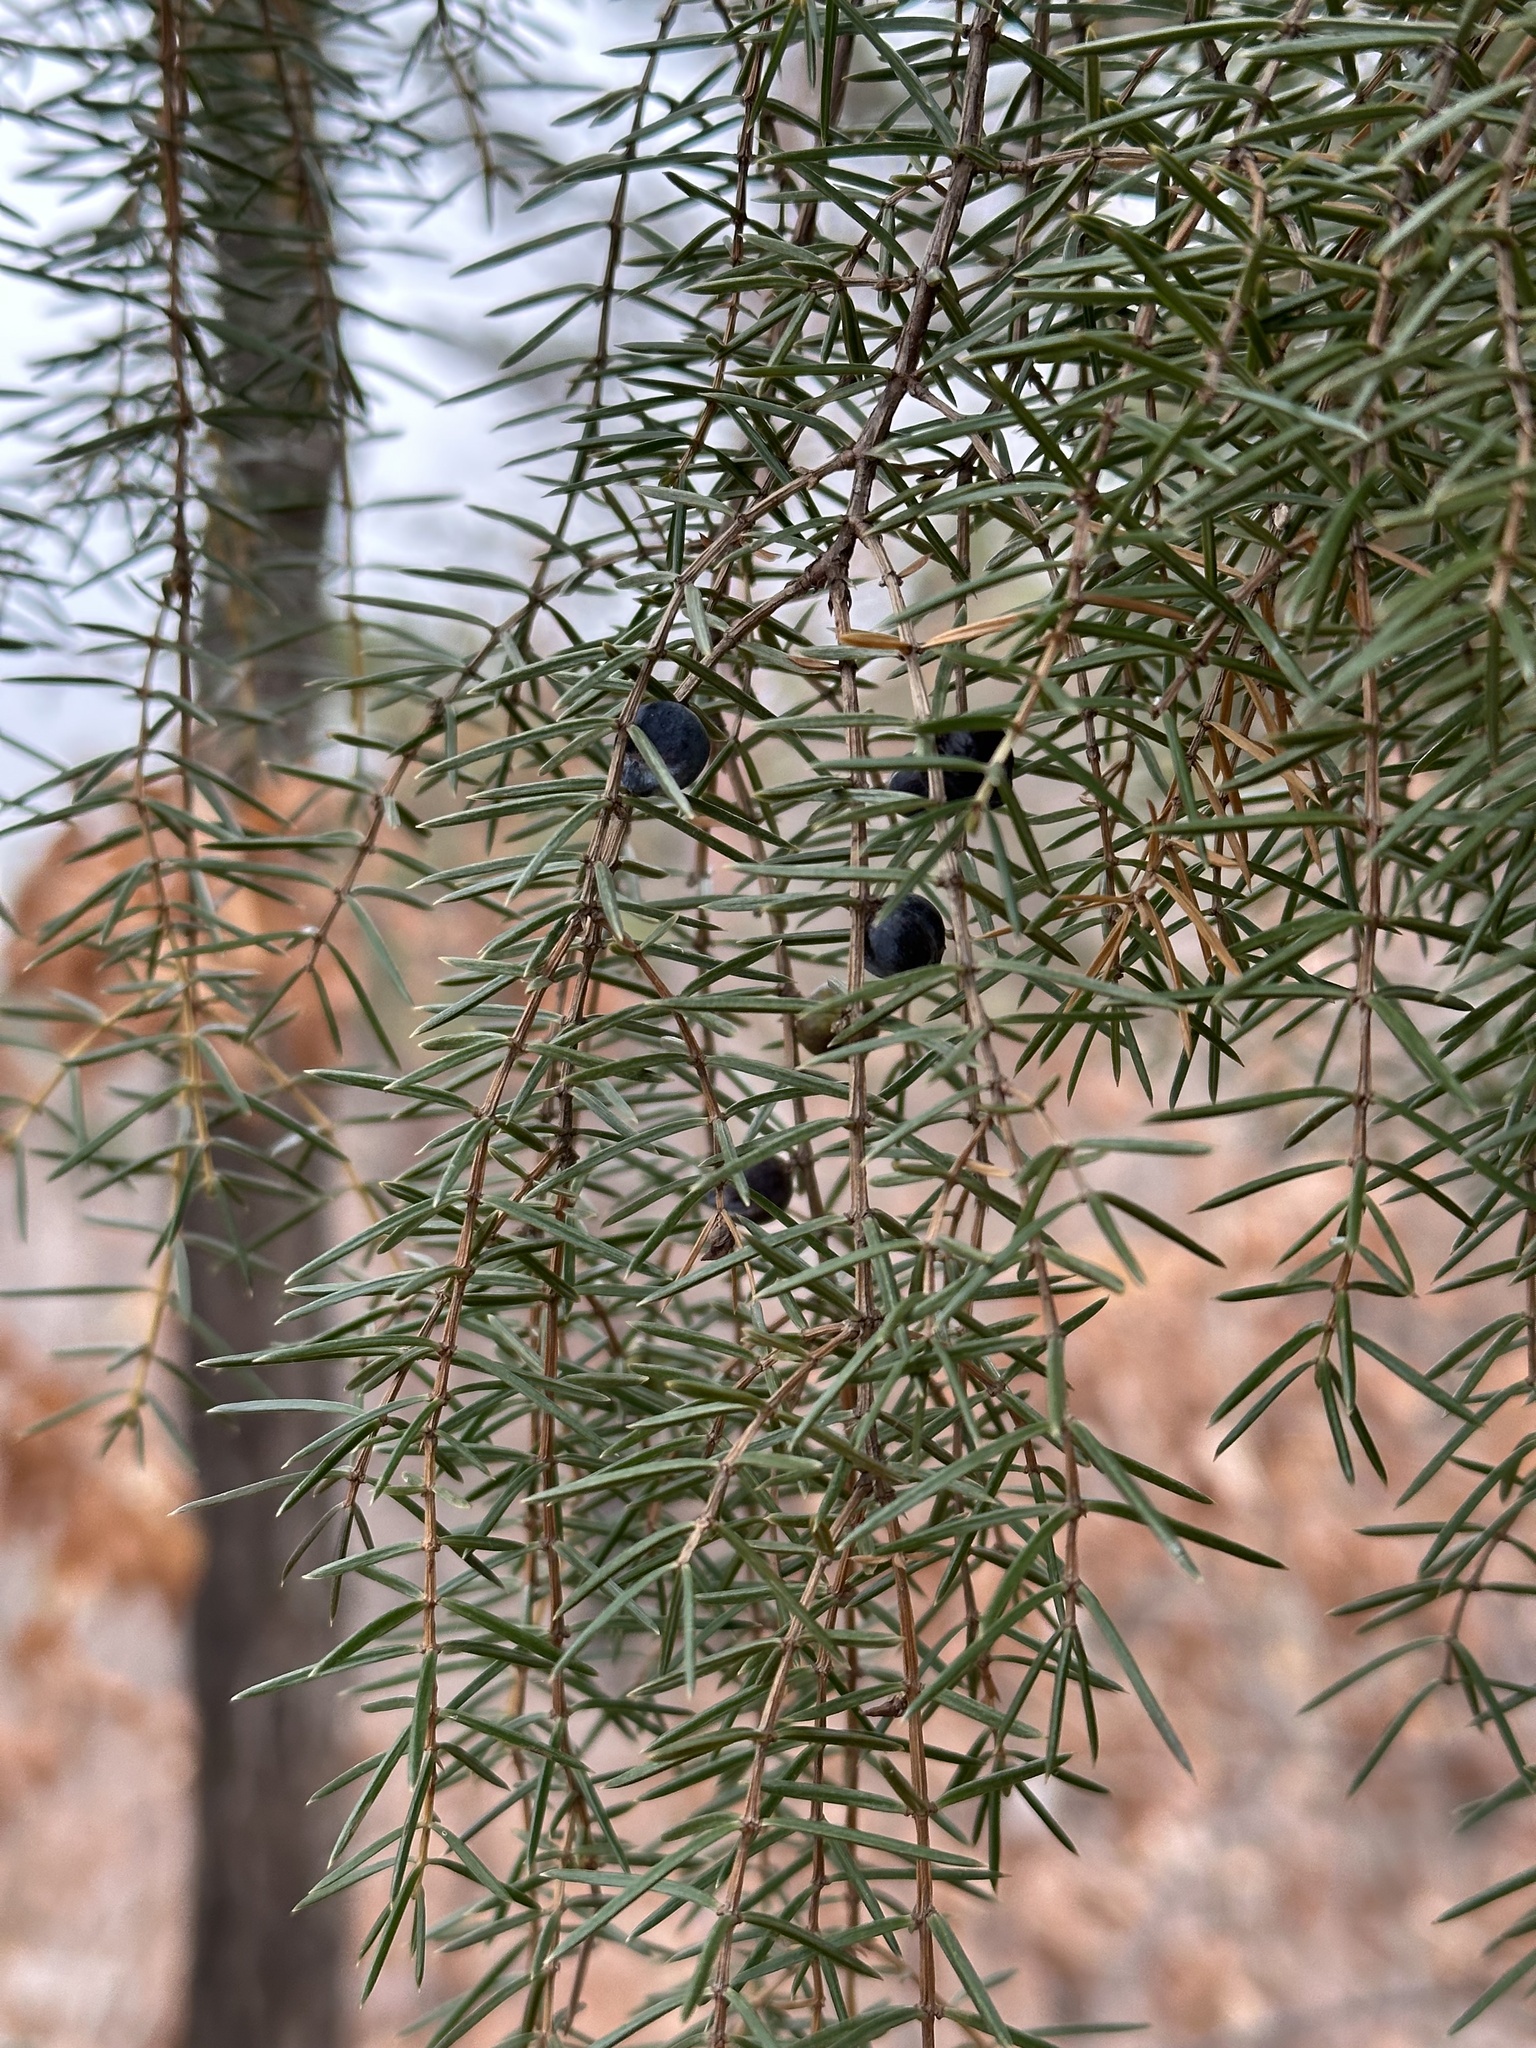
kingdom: Plantae
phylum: Tracheophyta
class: Pinopsida
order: Pinales
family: Cupressaceae
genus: Juniperus
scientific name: Juniperus rigida
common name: Needle juniper
